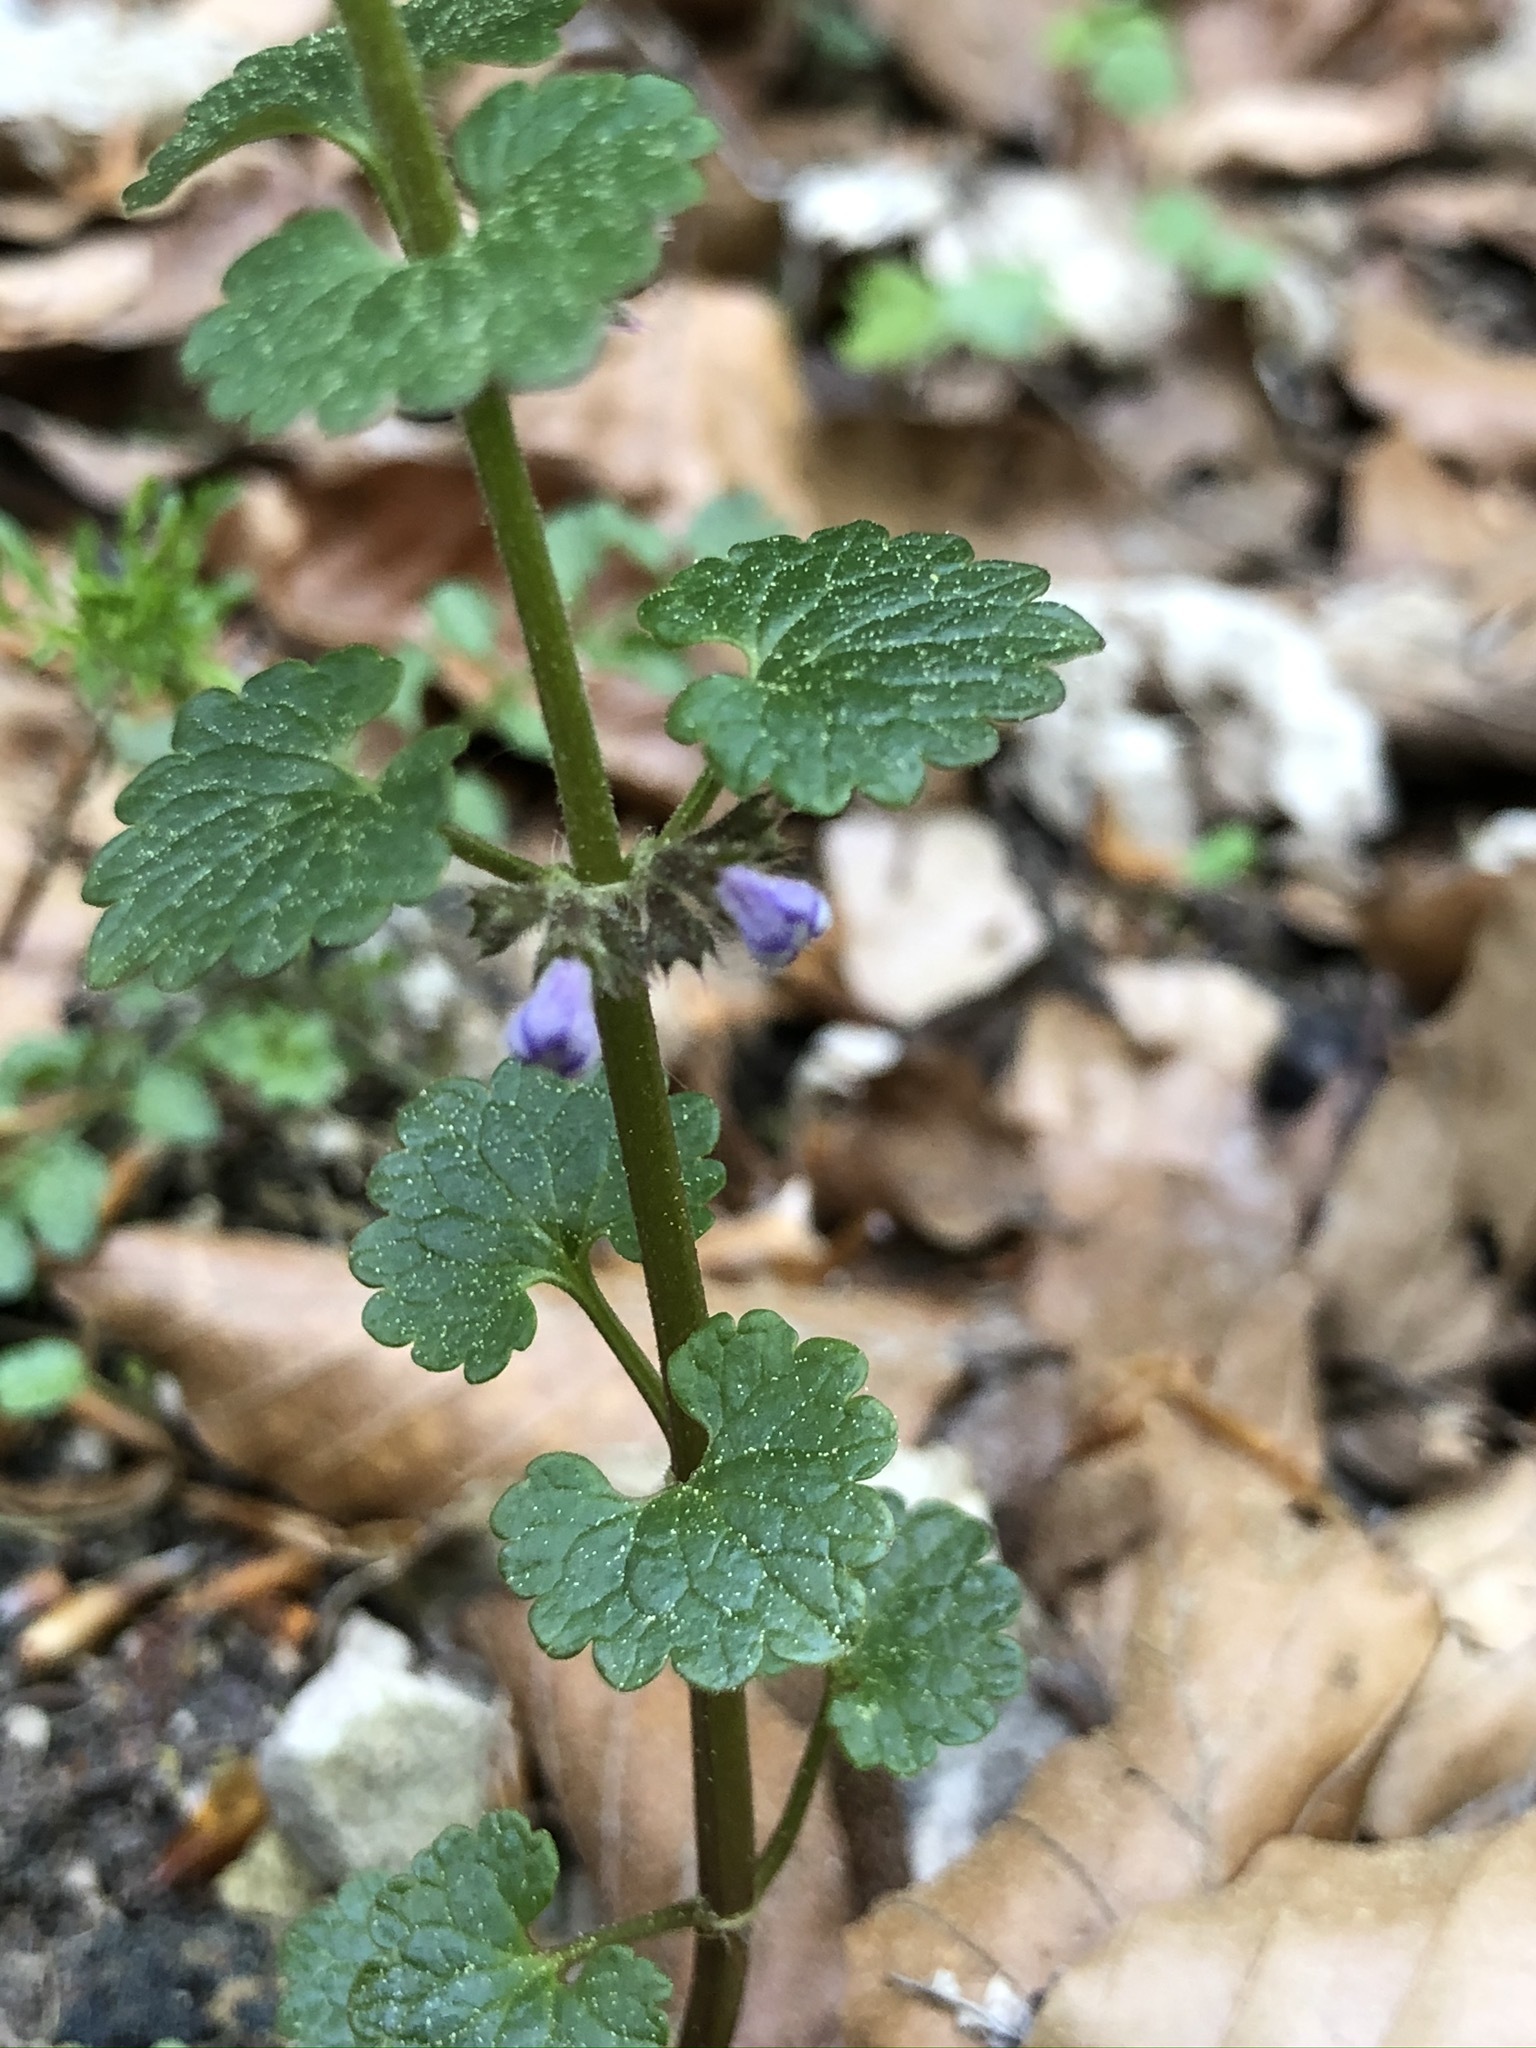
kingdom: Plantae
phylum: Tracheophyta
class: Magnoliopsida
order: Lamiales
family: Lamiaceae
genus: Glechoma
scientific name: Glechoma hederacea
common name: Ground ivy
